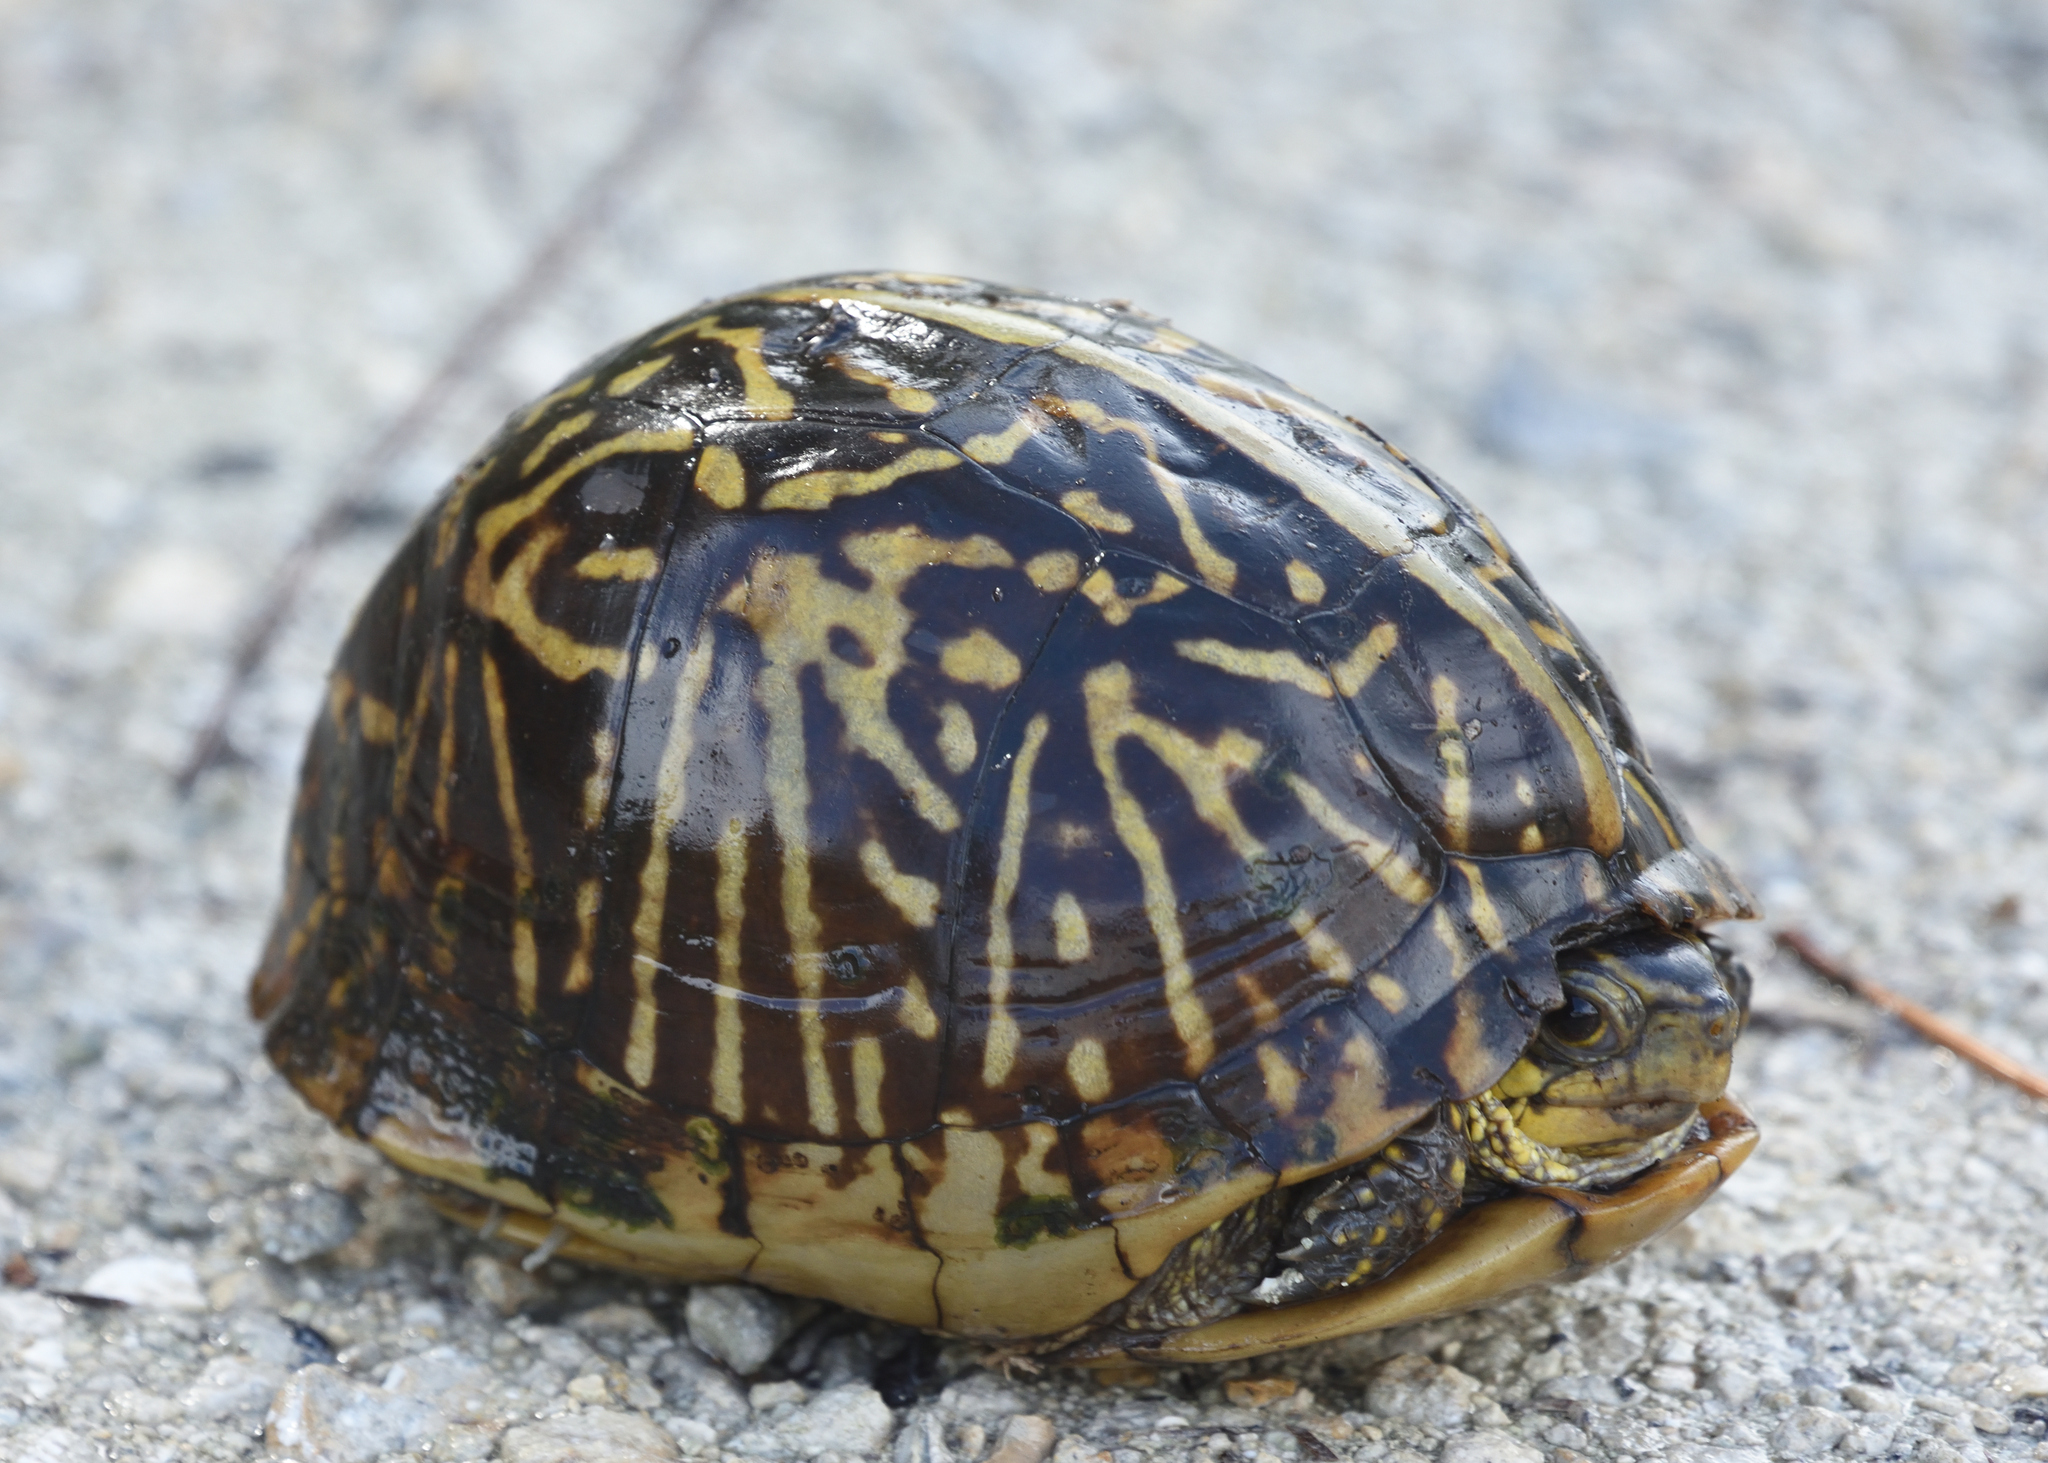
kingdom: Animalia
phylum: Chordata
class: Testudines
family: Emydidae
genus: Terrapene
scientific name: Terrapene carolina
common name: Common box turtle
